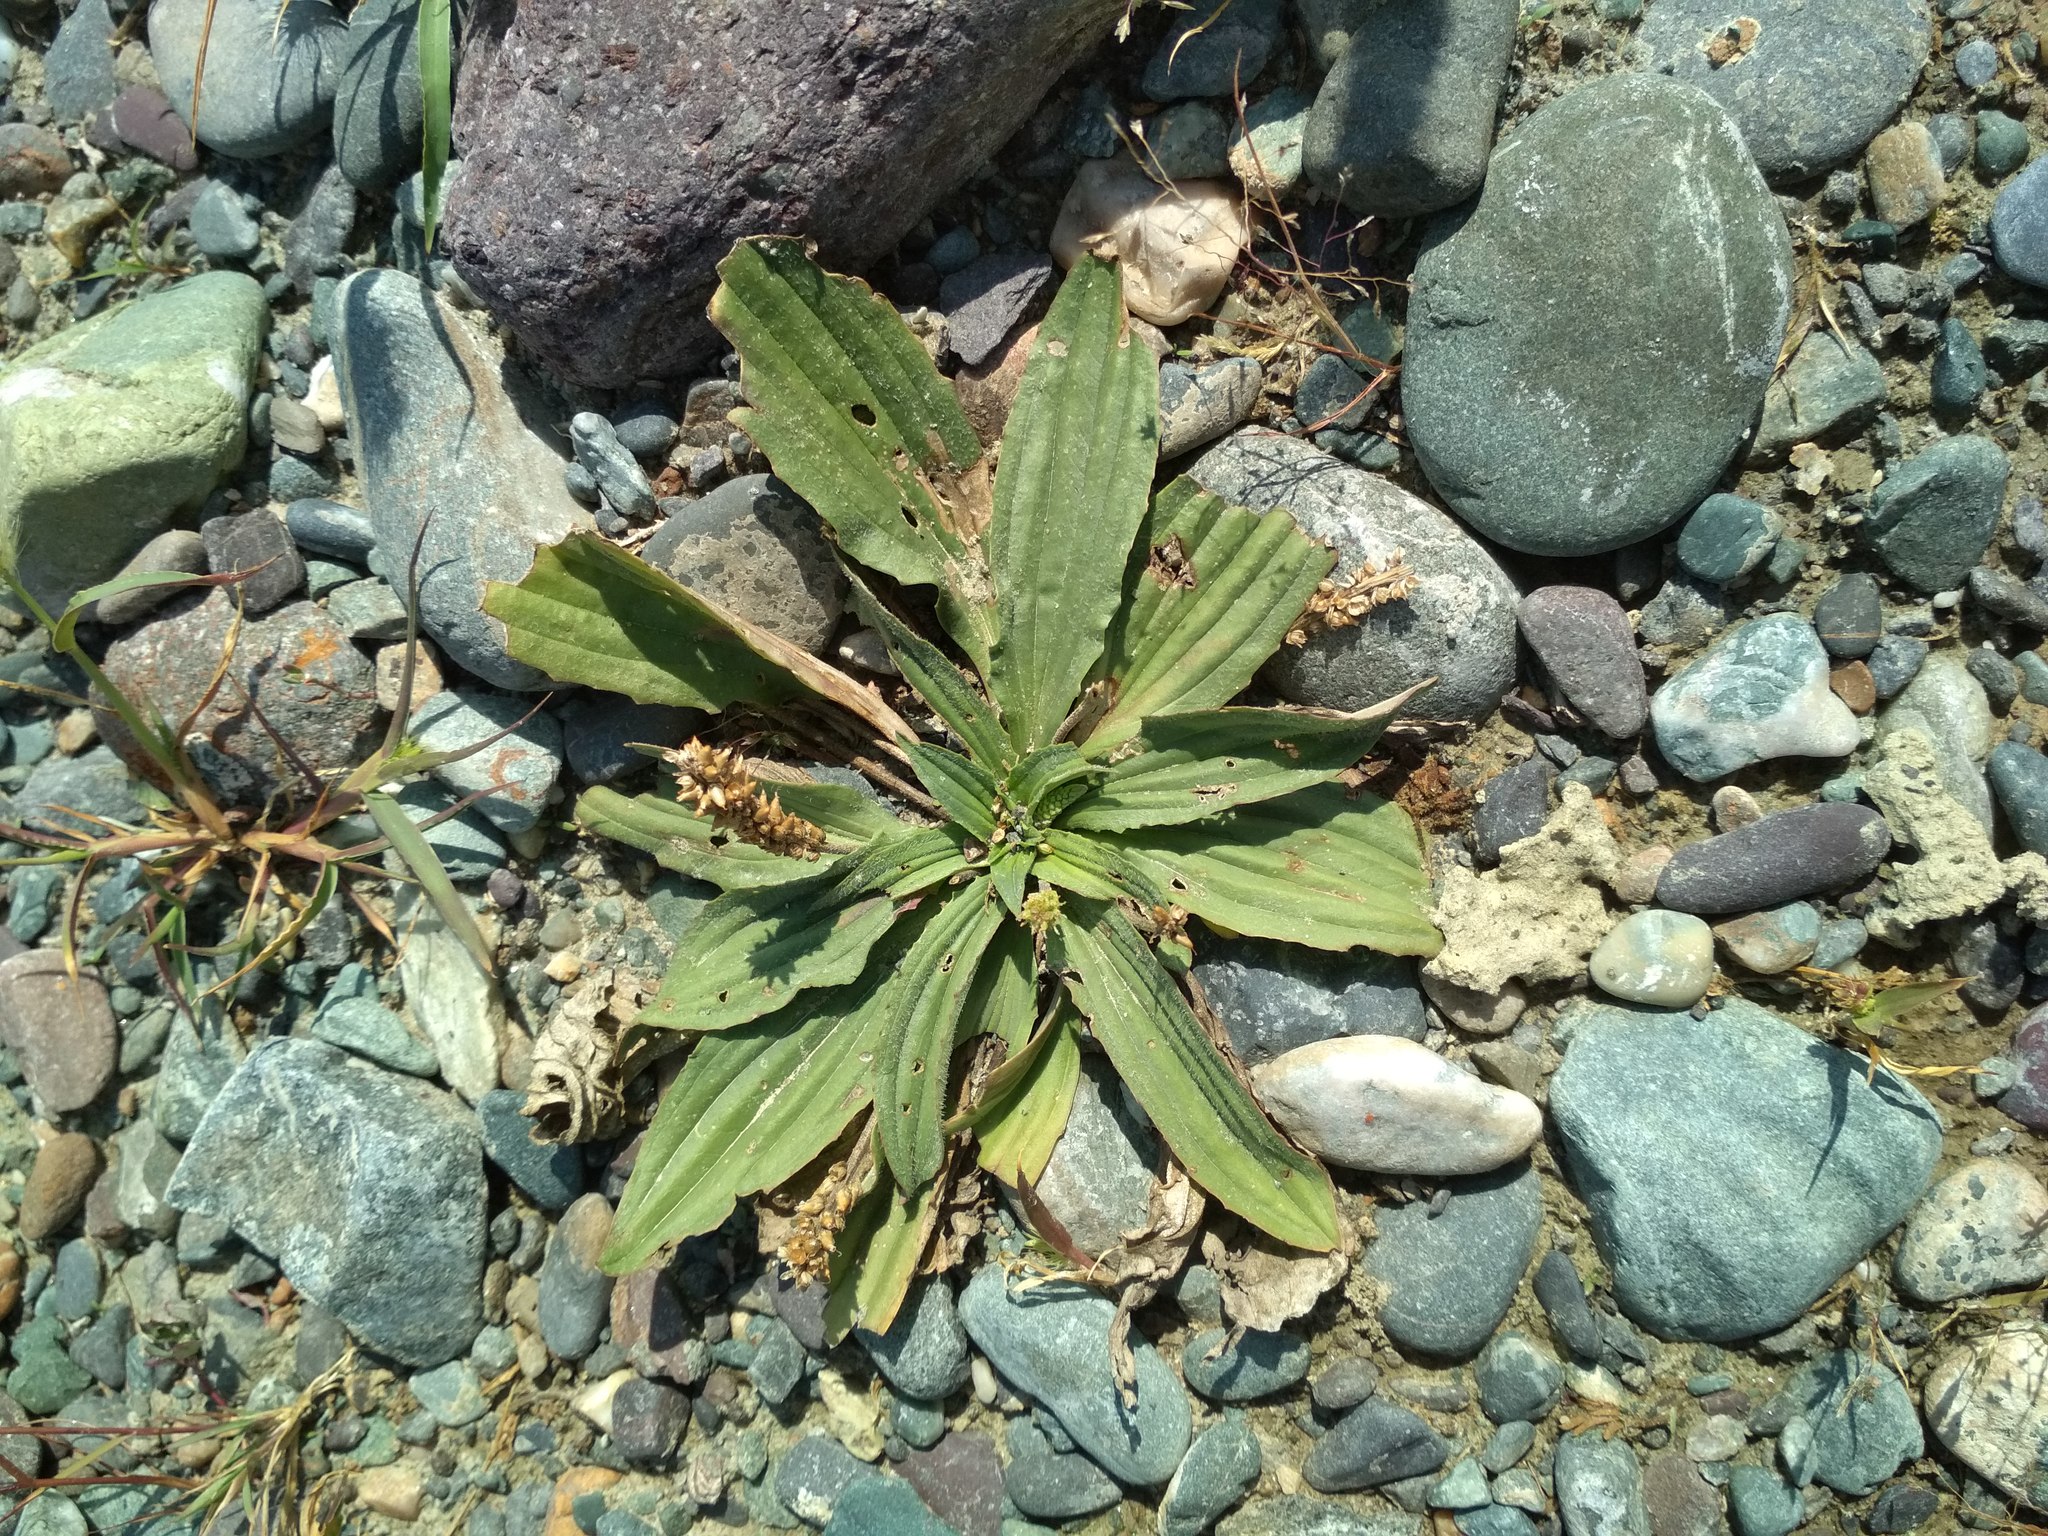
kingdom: Plantae
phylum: Tracheophyta
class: Magnoliopsida
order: Lamiales
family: Plantaginaceae
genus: Plantago
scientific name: Plantago depressa
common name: Depressed plantain
